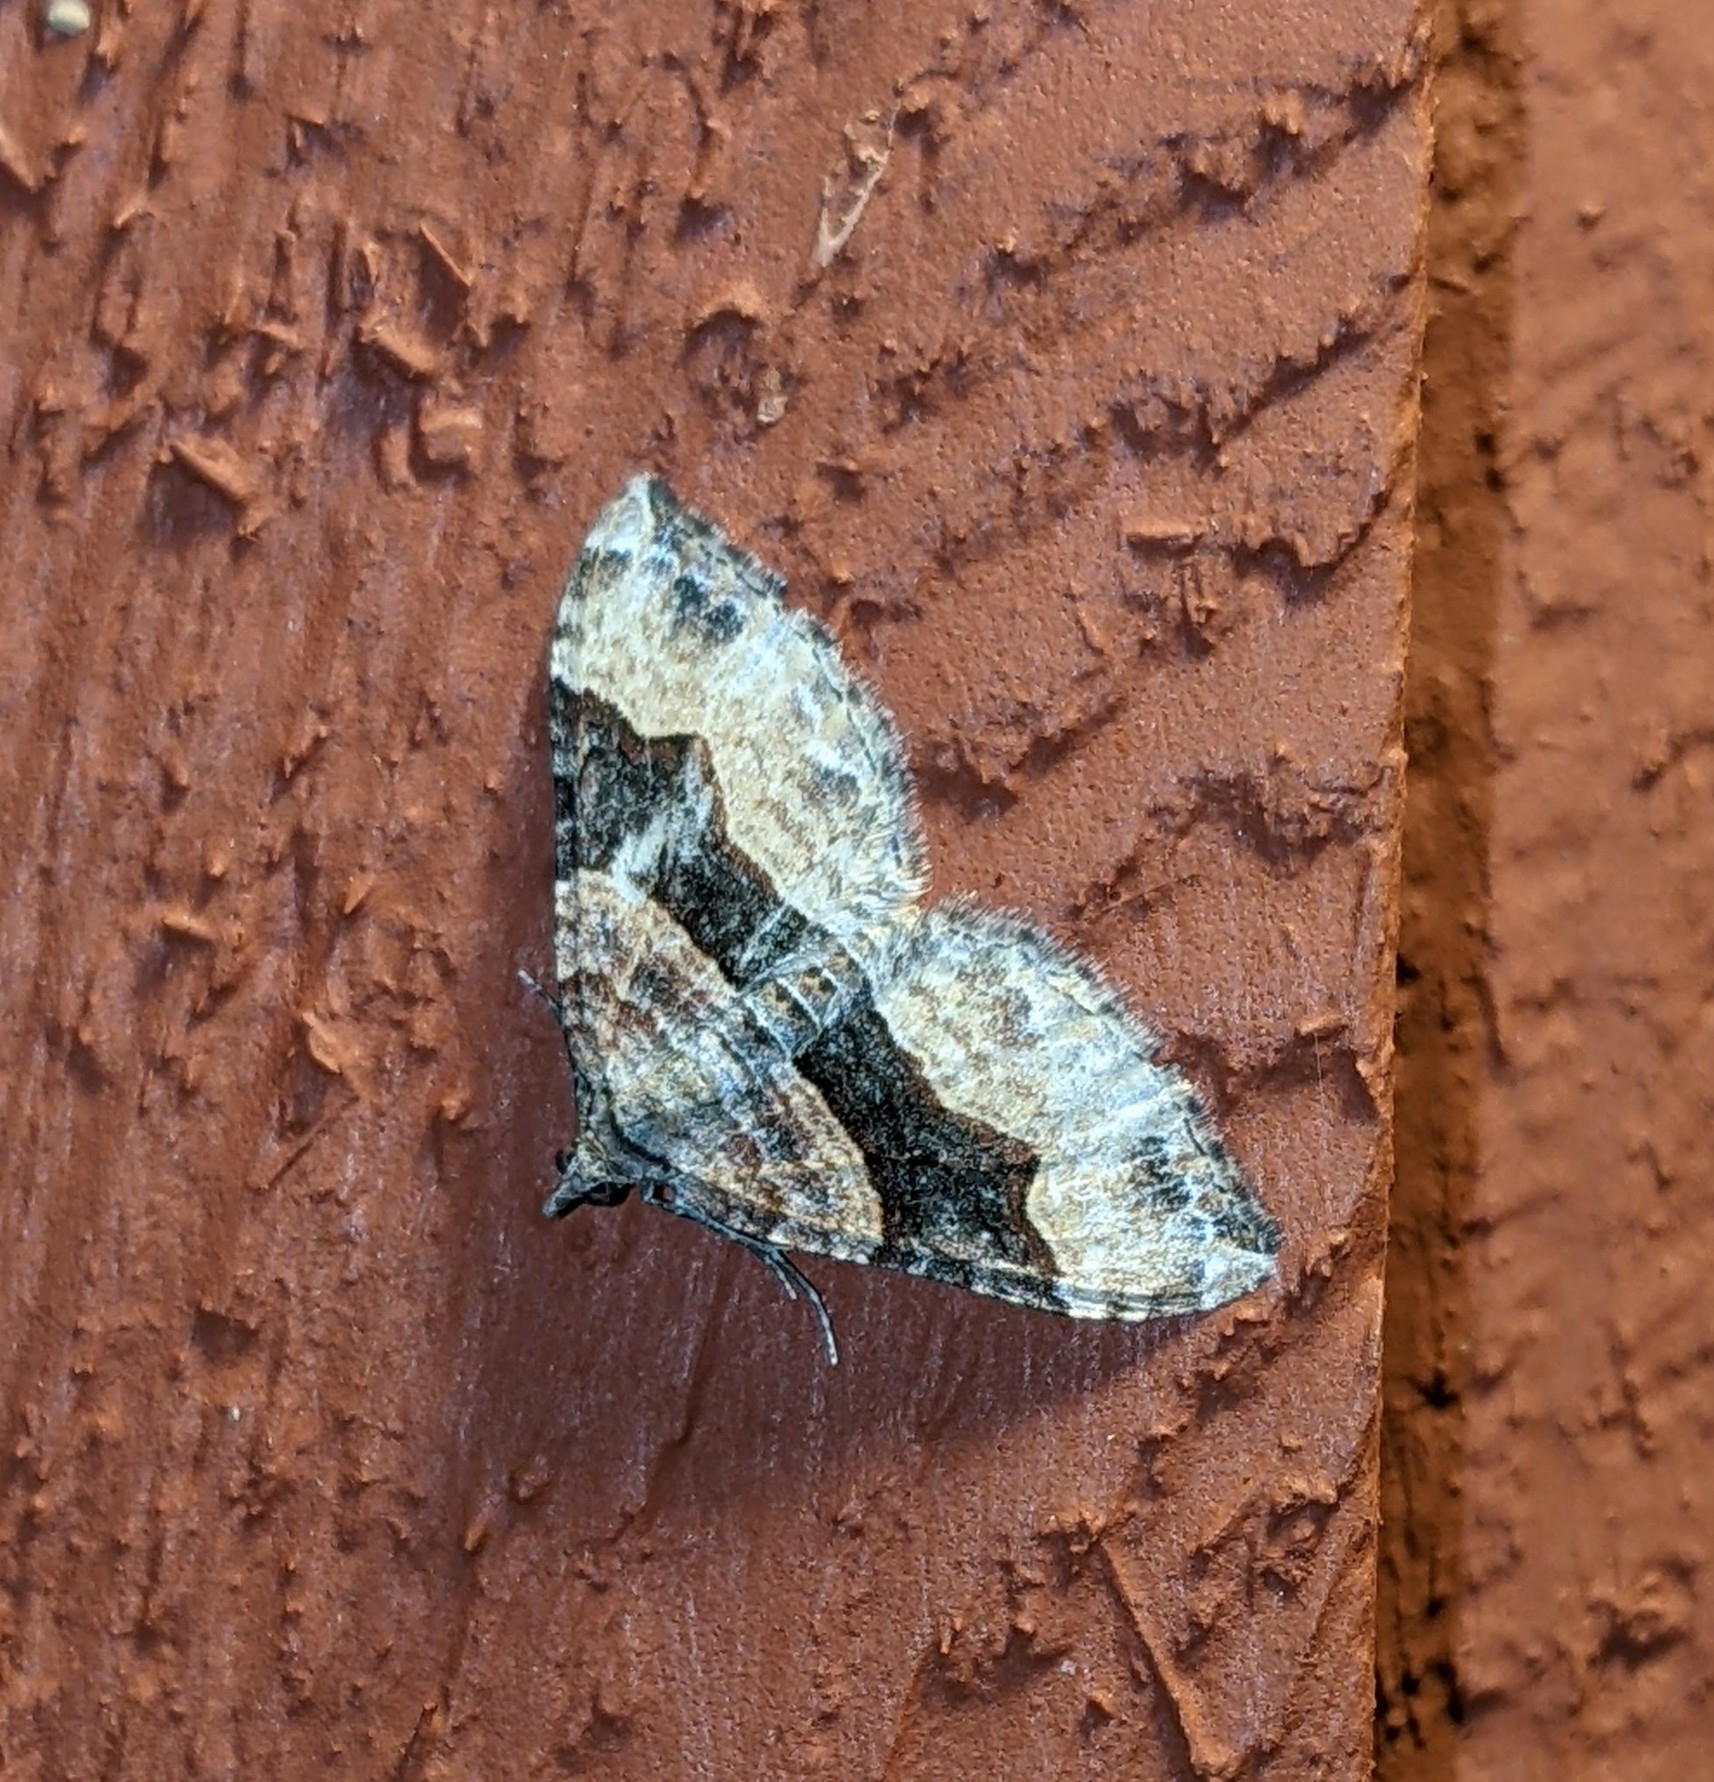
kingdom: Animalia
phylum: Arthropoda
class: Insecta
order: Lepidoptera
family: Geometridae
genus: Xanthorhoe
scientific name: Xanthorhoe defensaria
